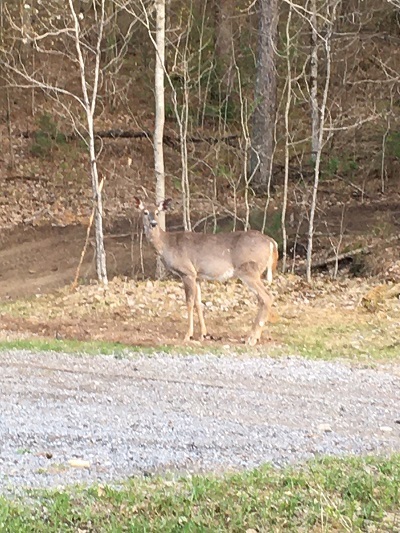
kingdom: Animalia
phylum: Chordata
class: Mammalia
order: Artiodactyla
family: Cervidae
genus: Odocoileus
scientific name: Odocoileus virginianus
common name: White-tailed deer
